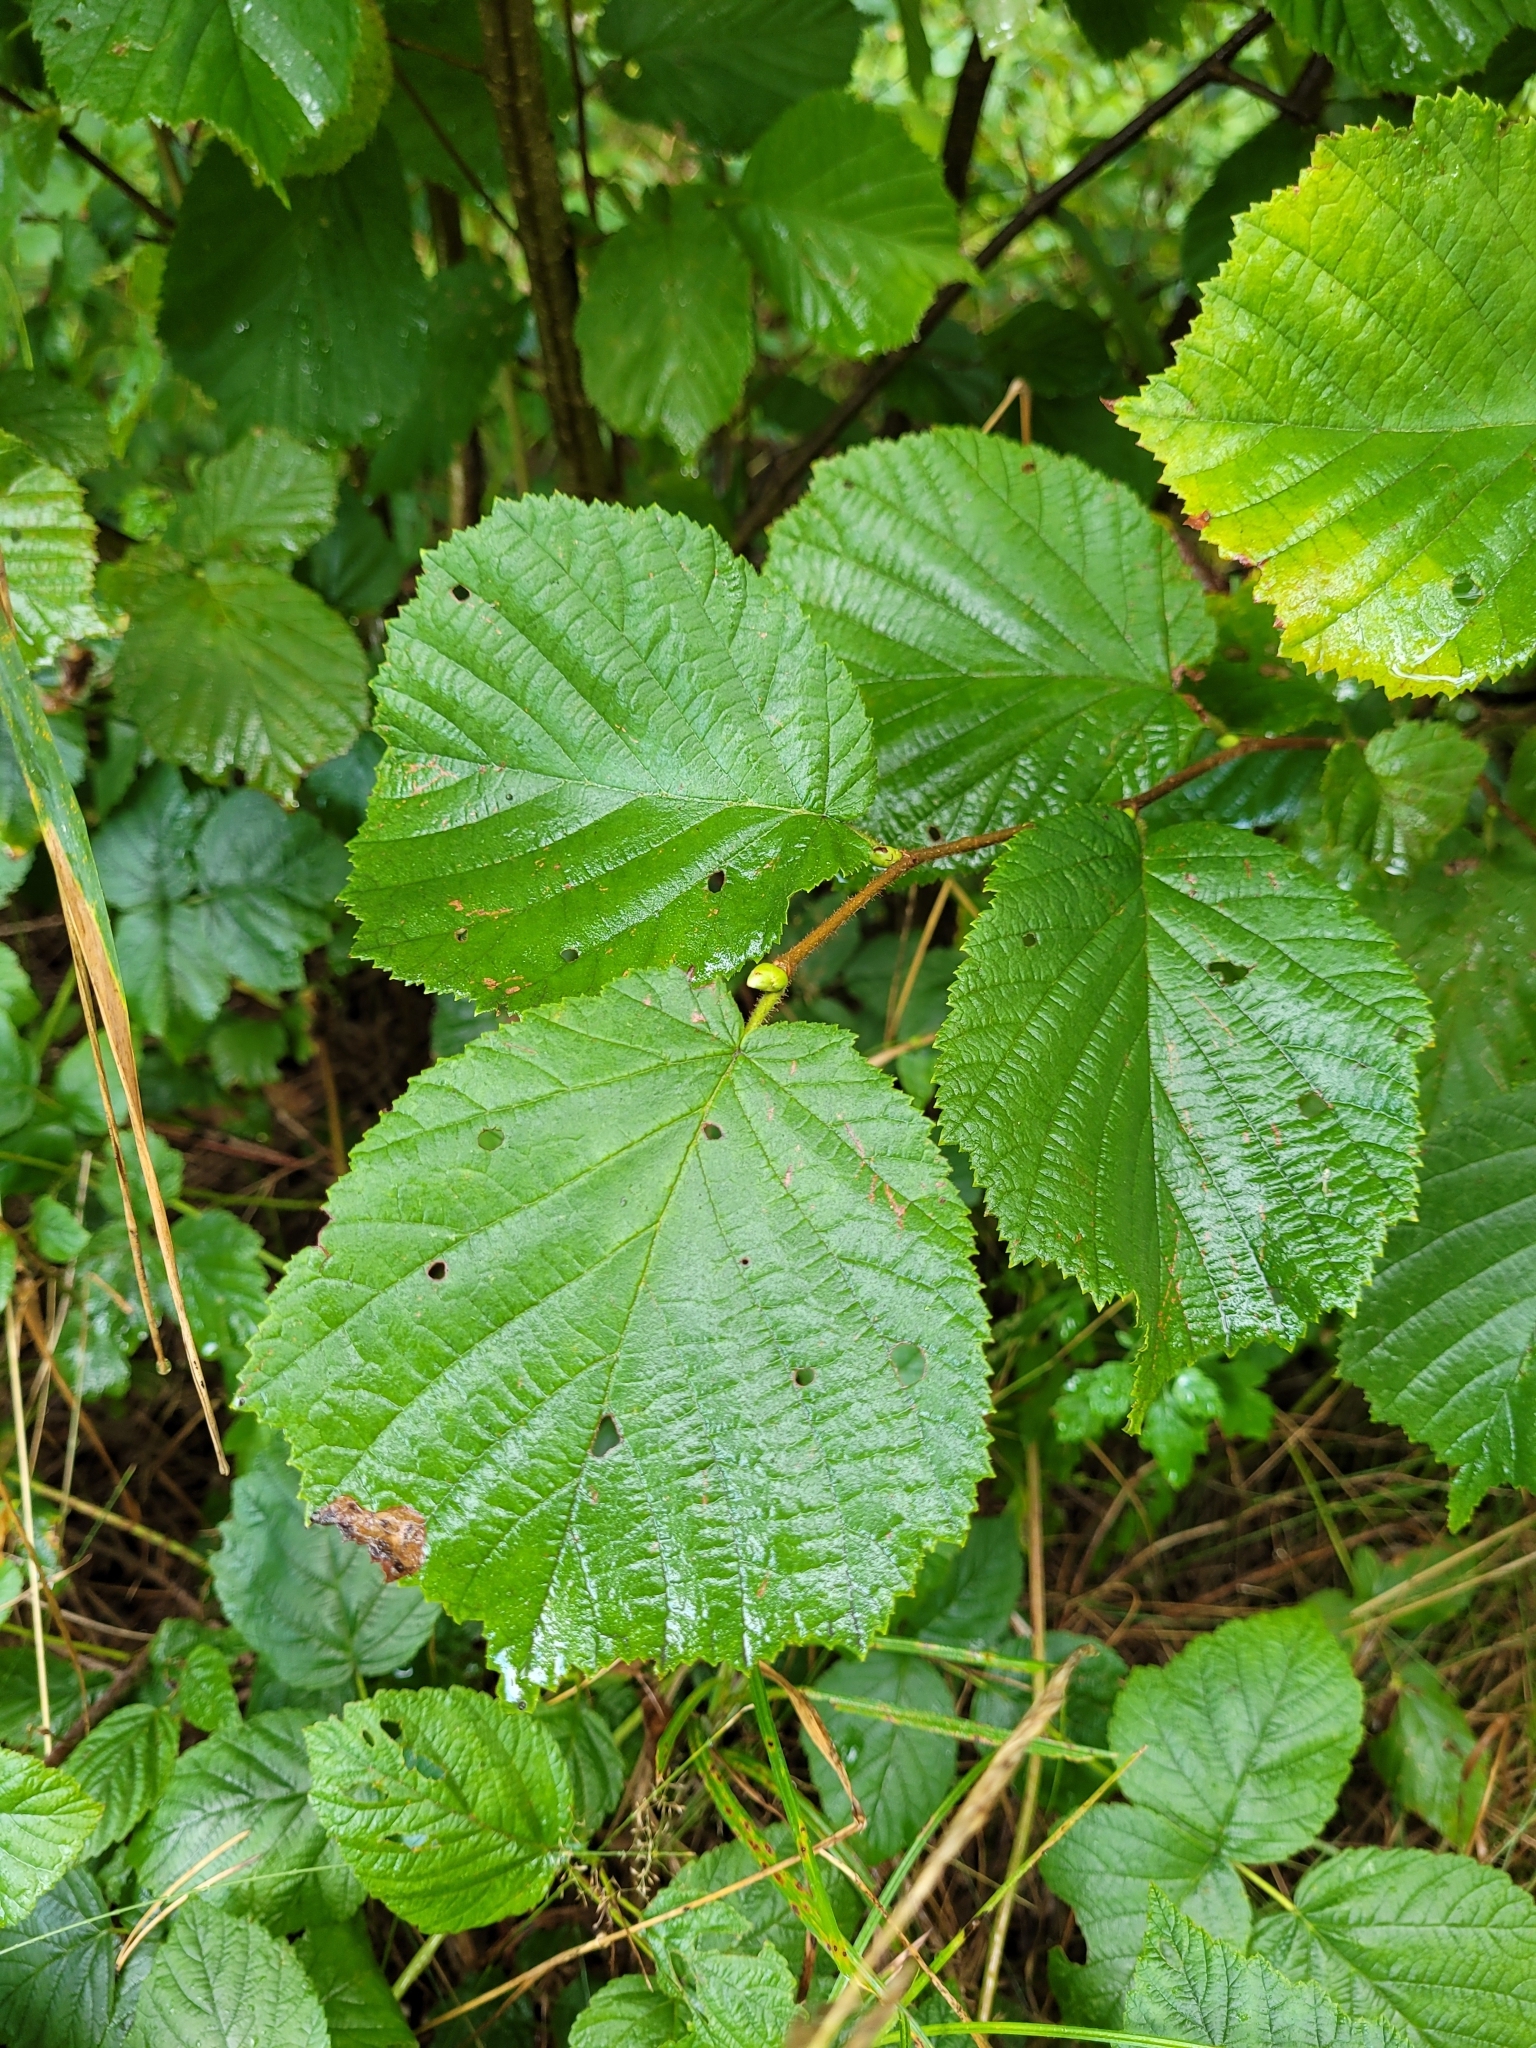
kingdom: Plantae
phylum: Tracheophyta
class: Magnoliopsida
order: Fagales
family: Betulaceae
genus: Corylus
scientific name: Corylus avellana
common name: European hazel
